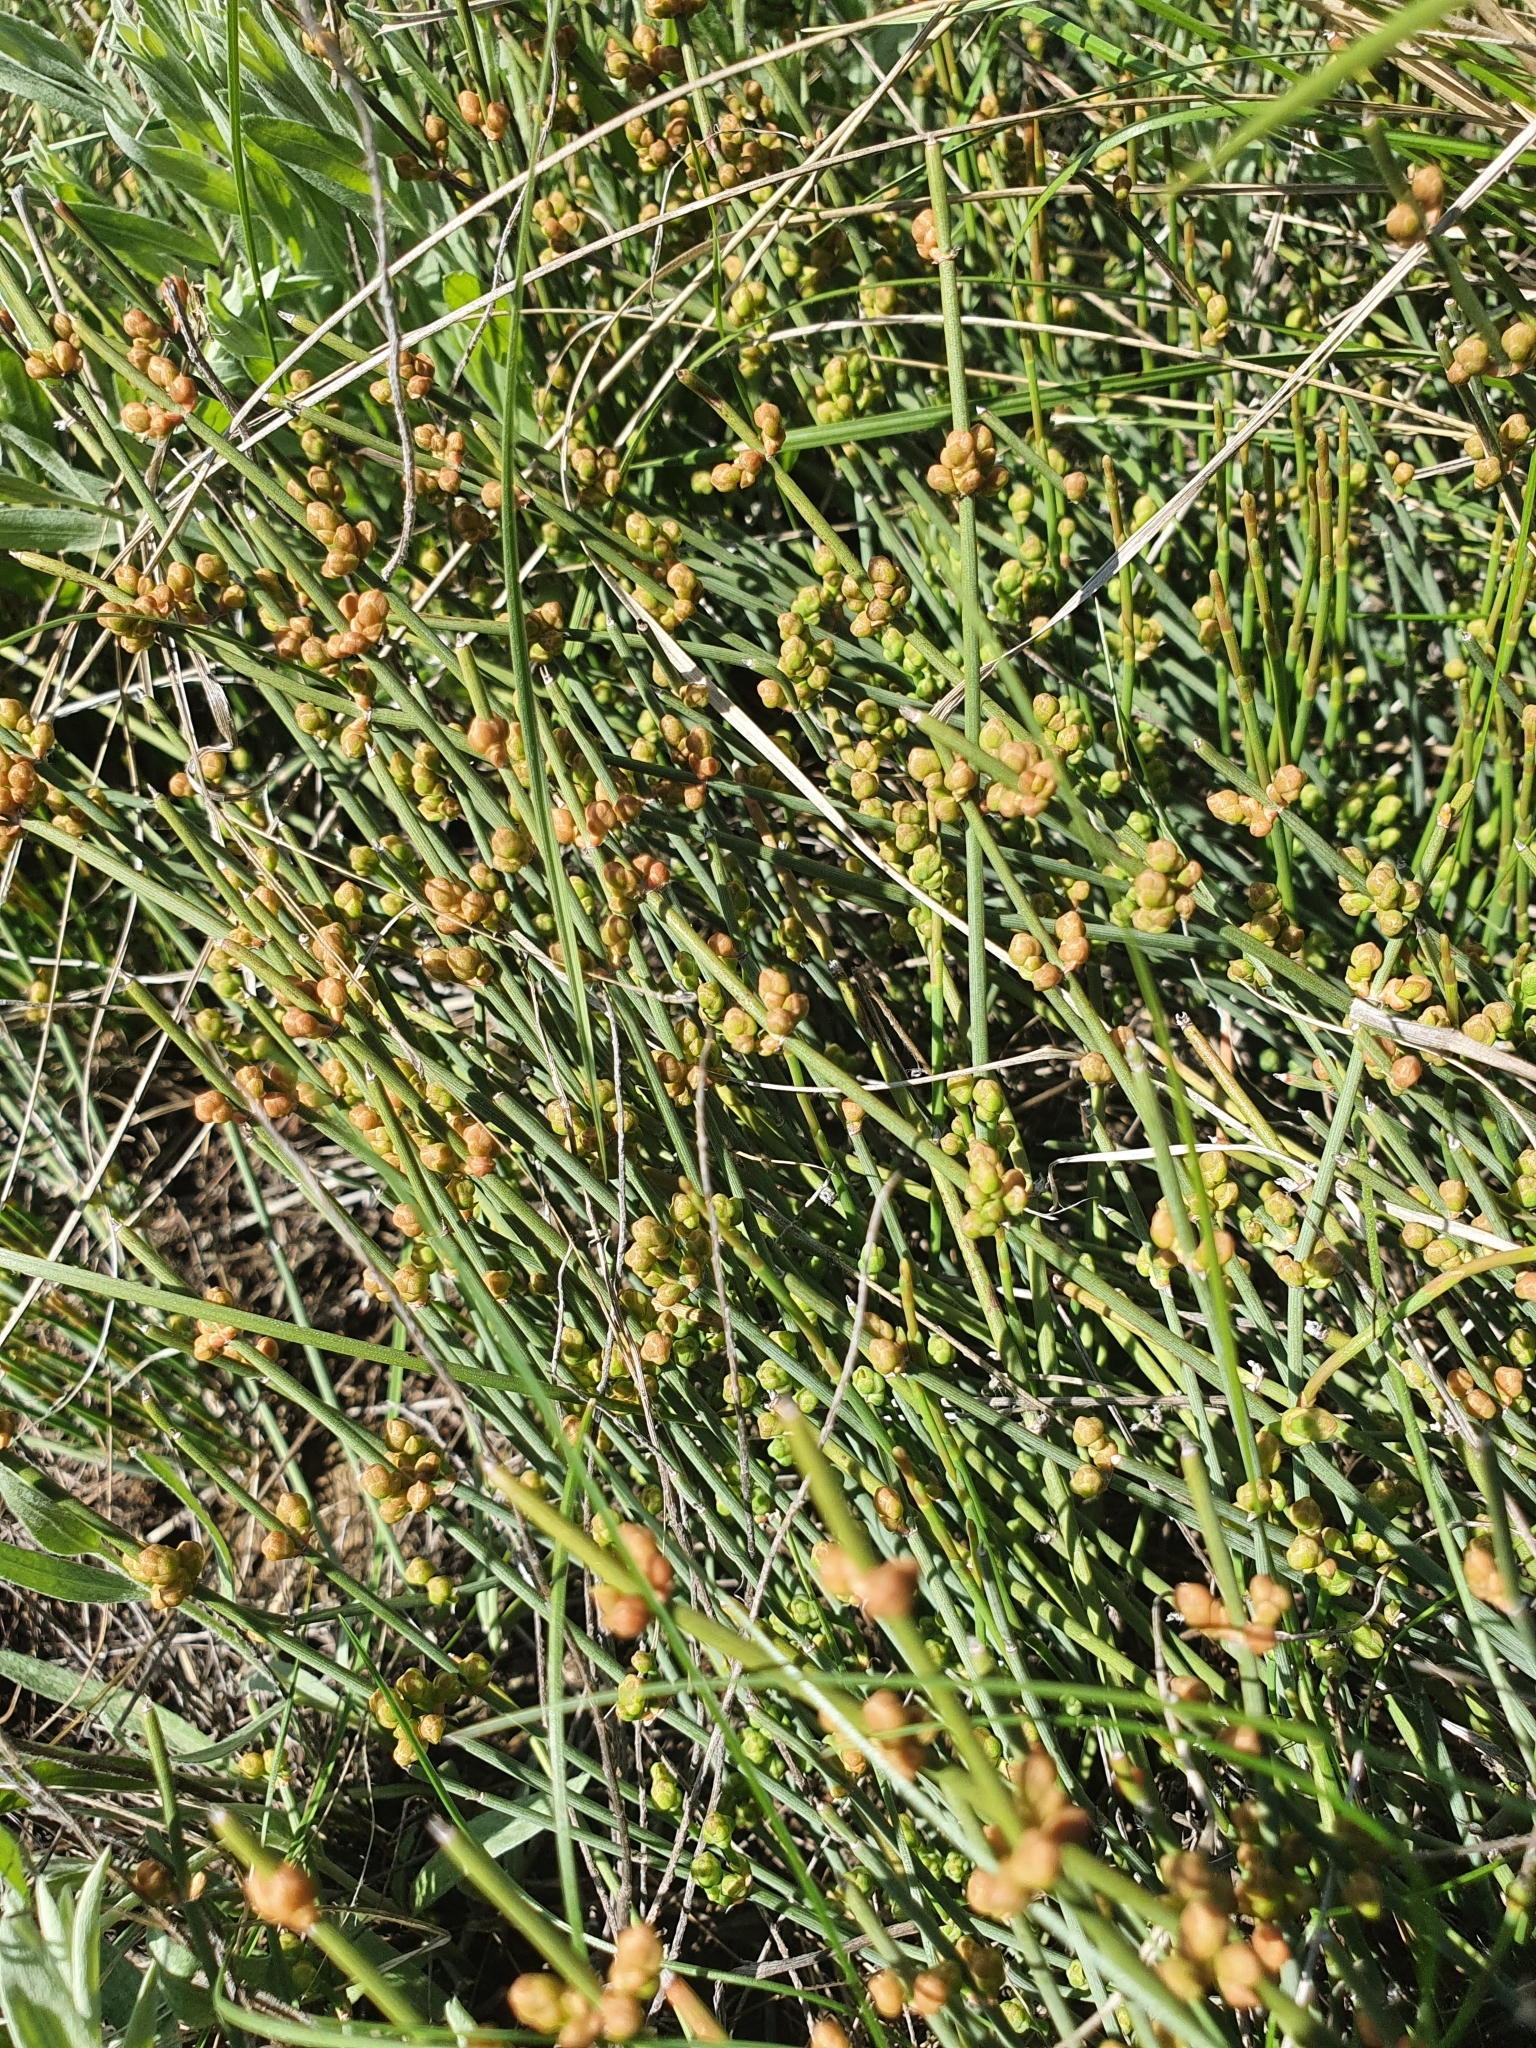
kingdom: Plantae
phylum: Tracheophyta
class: Gnetopsida
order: Ephedrales
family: Ephedraceae
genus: Ephedra
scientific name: Ephedra distachya
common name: Sea grape
